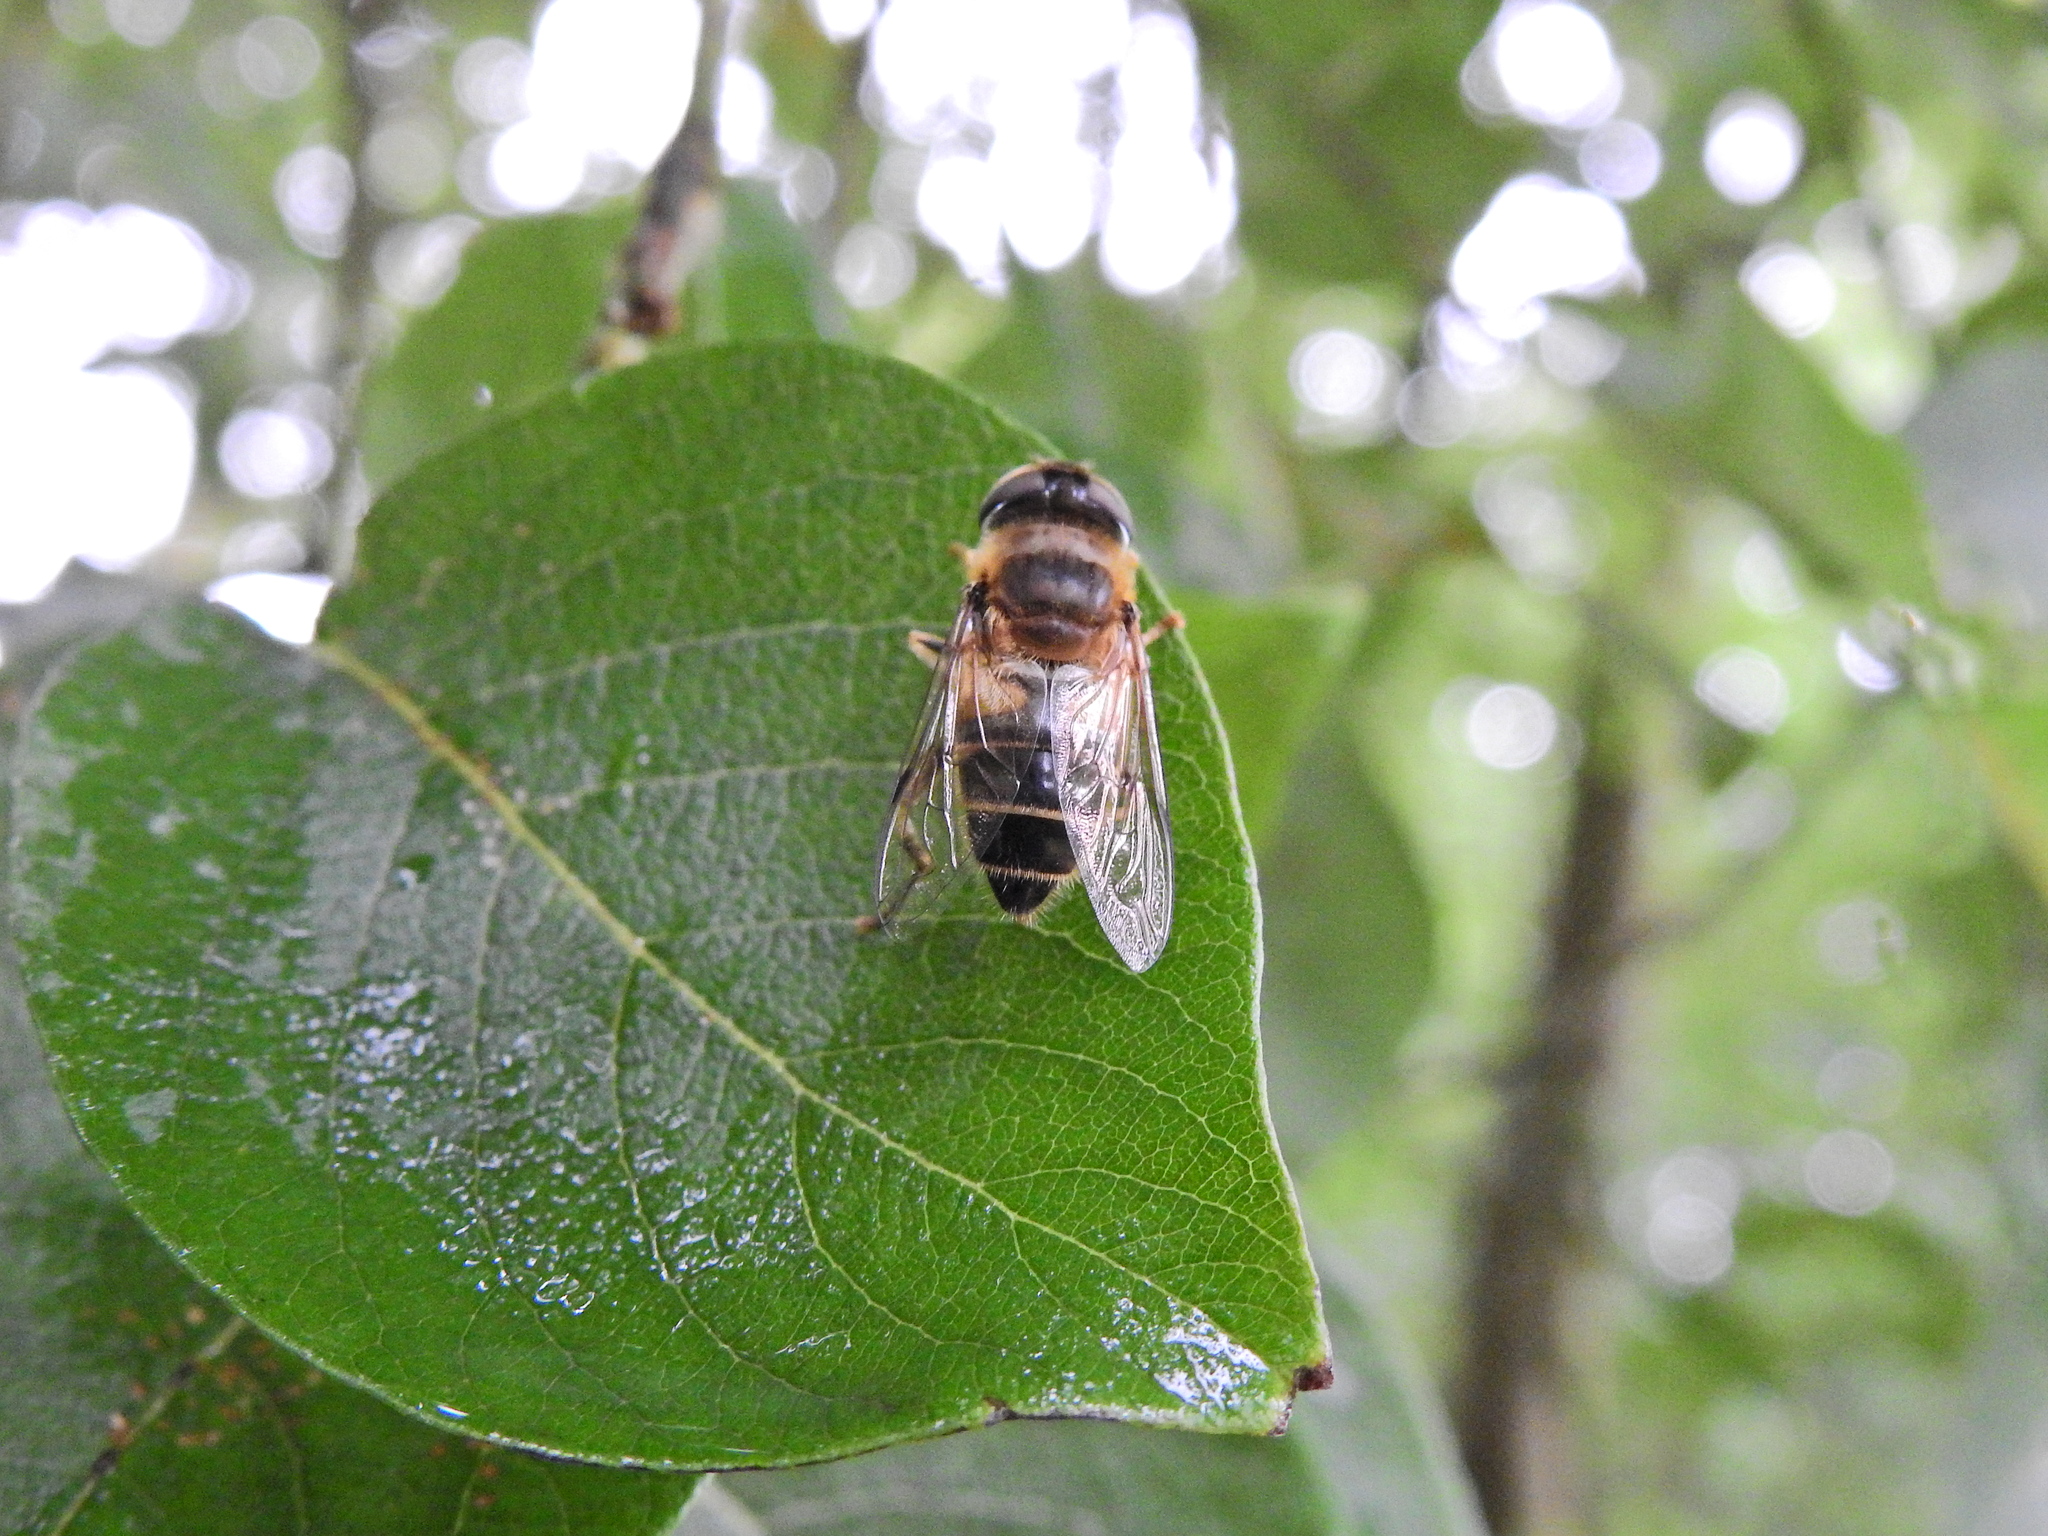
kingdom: Animalia
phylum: Arthropoda
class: Insecta
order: Diptera
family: Syrphidae
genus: Eristalis
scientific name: Eristalis pertinax
